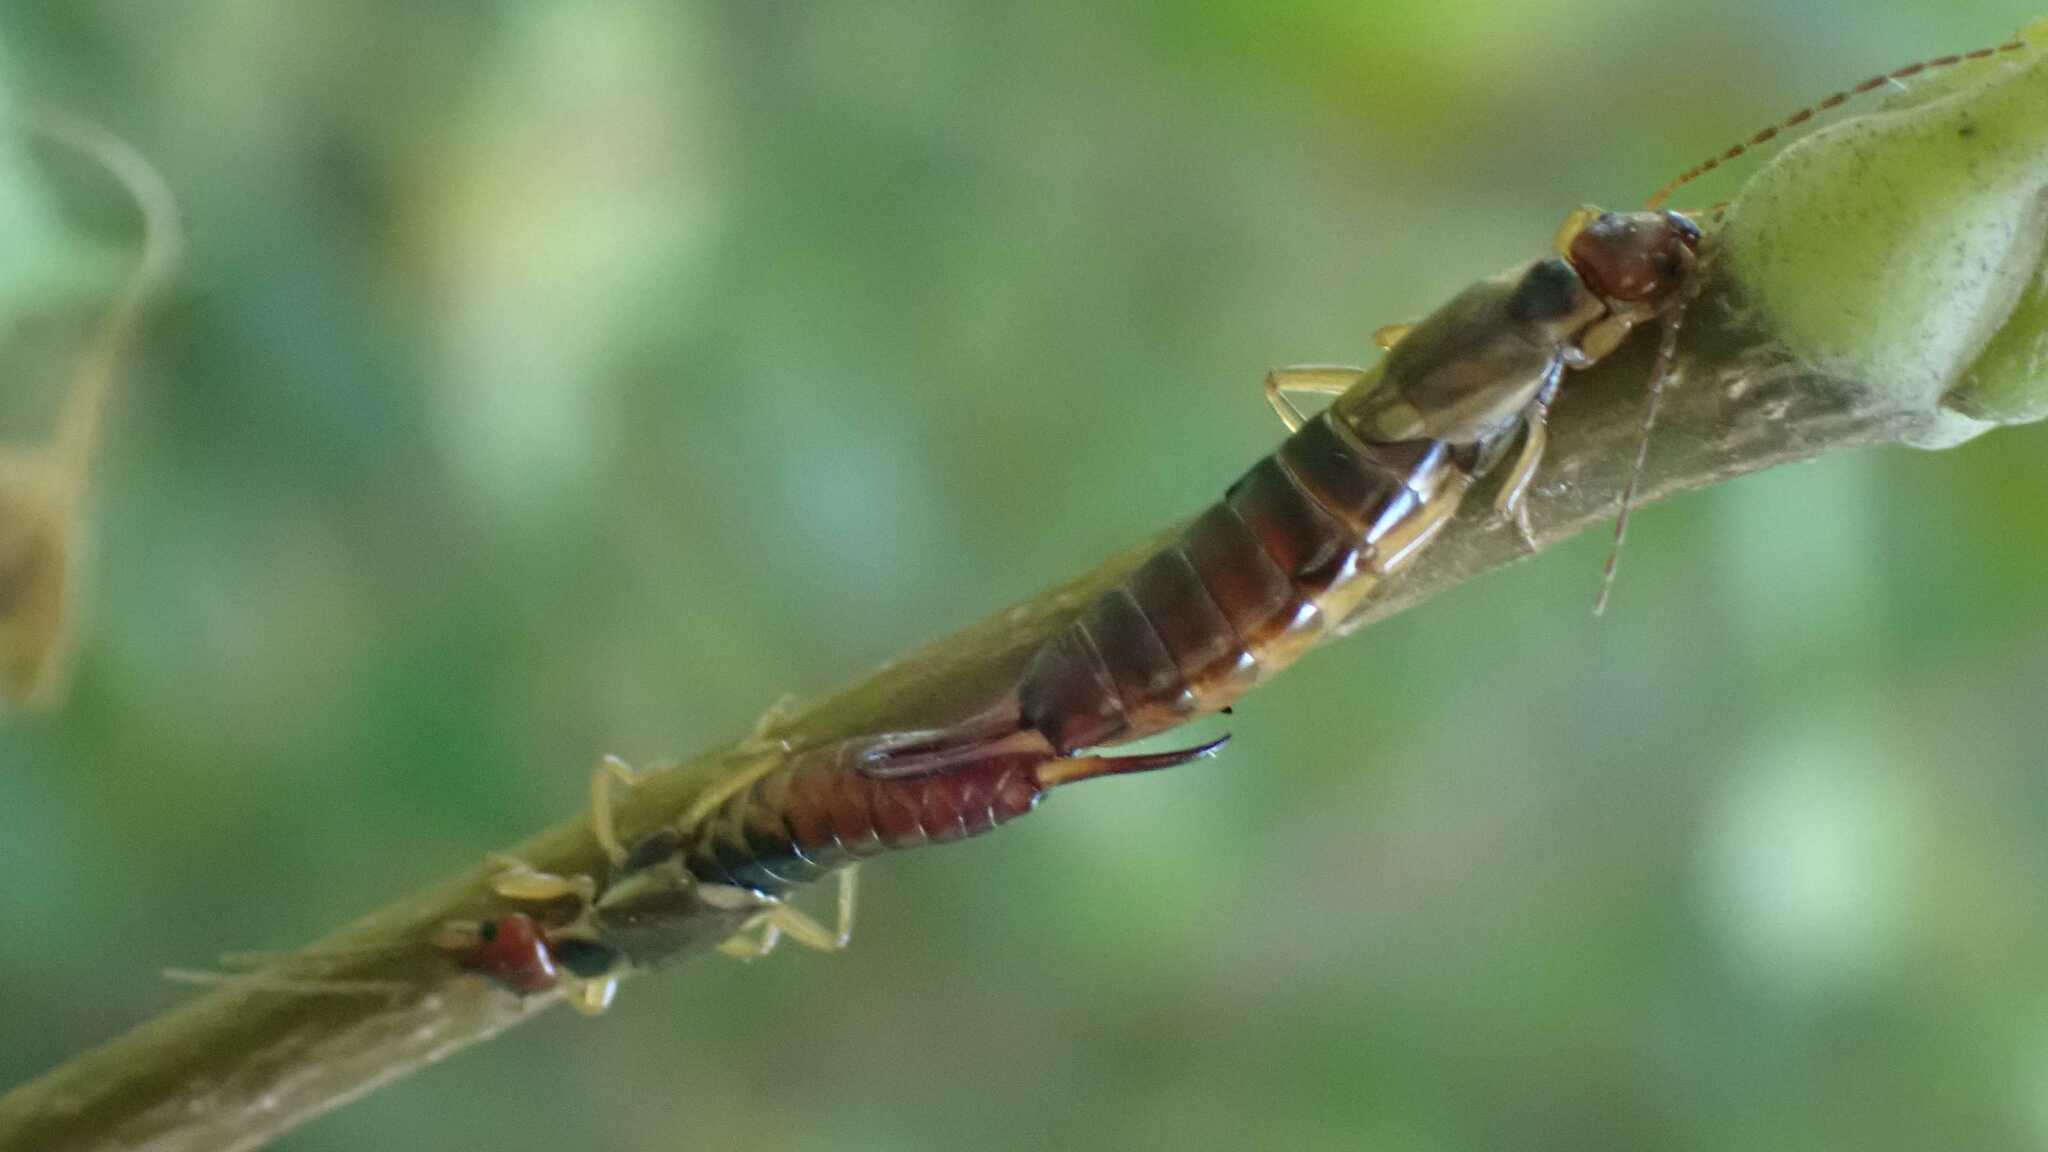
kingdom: Animalia
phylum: Arthropoda
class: Insecta
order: Dermaptera
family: Forficulidae
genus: Forficula
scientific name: Forficula
